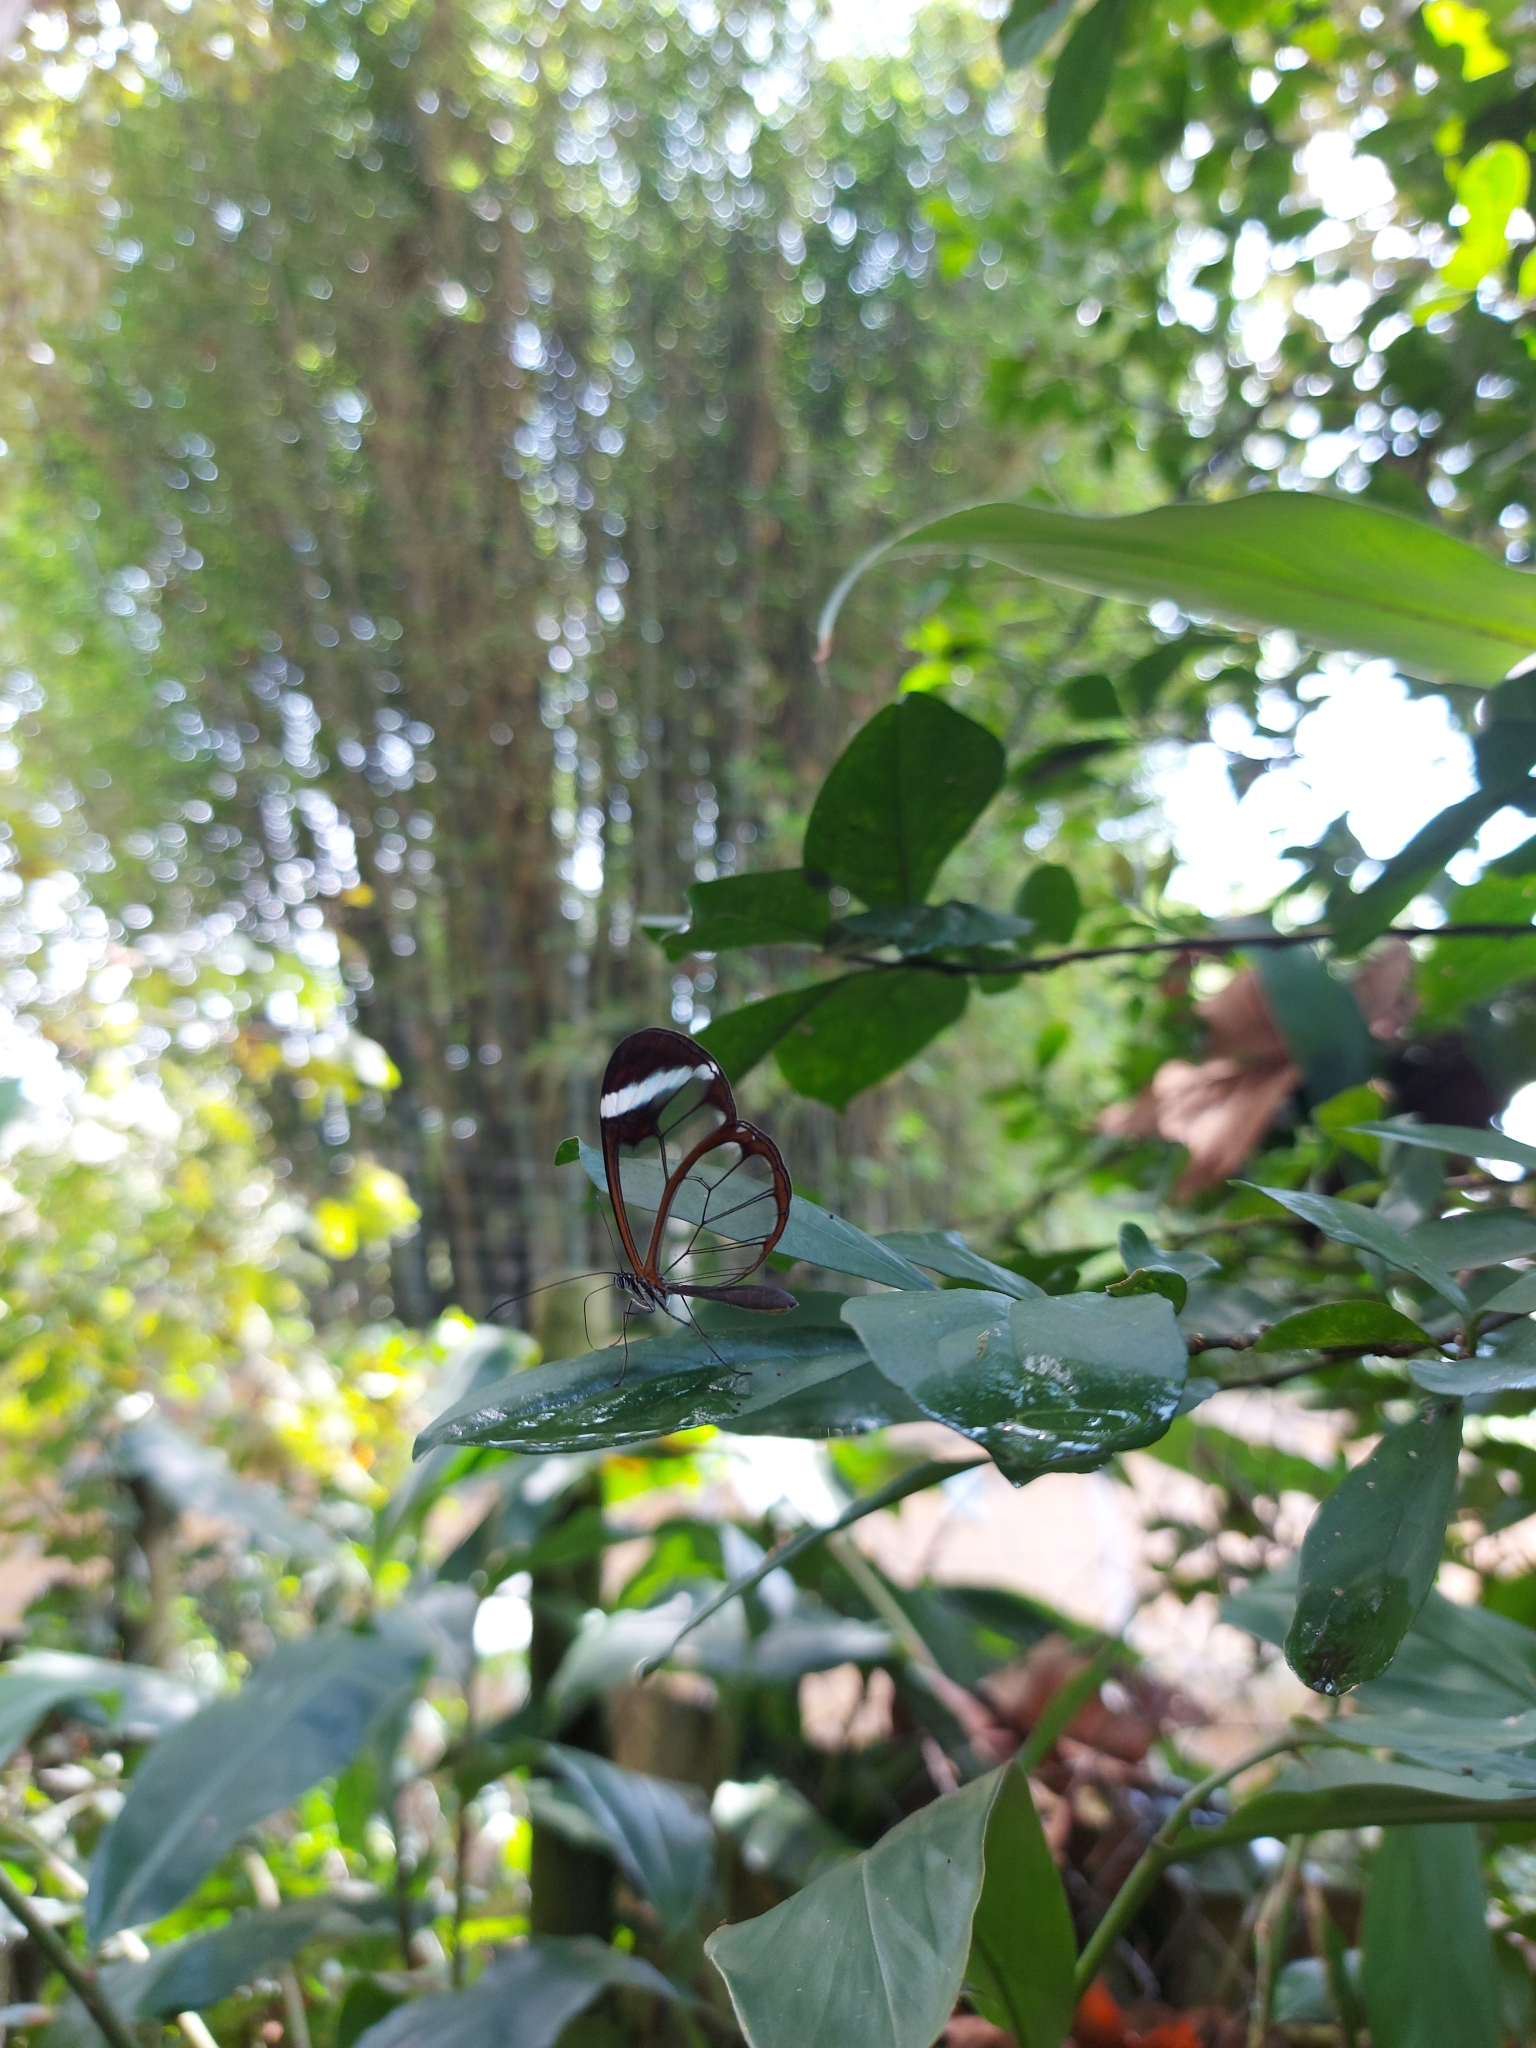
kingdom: Animalia
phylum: Arthropoda
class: Insecta
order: Lepidoptera
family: Nymphalidae
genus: Greta
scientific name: Greta morgane
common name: Thick-tipped greta
